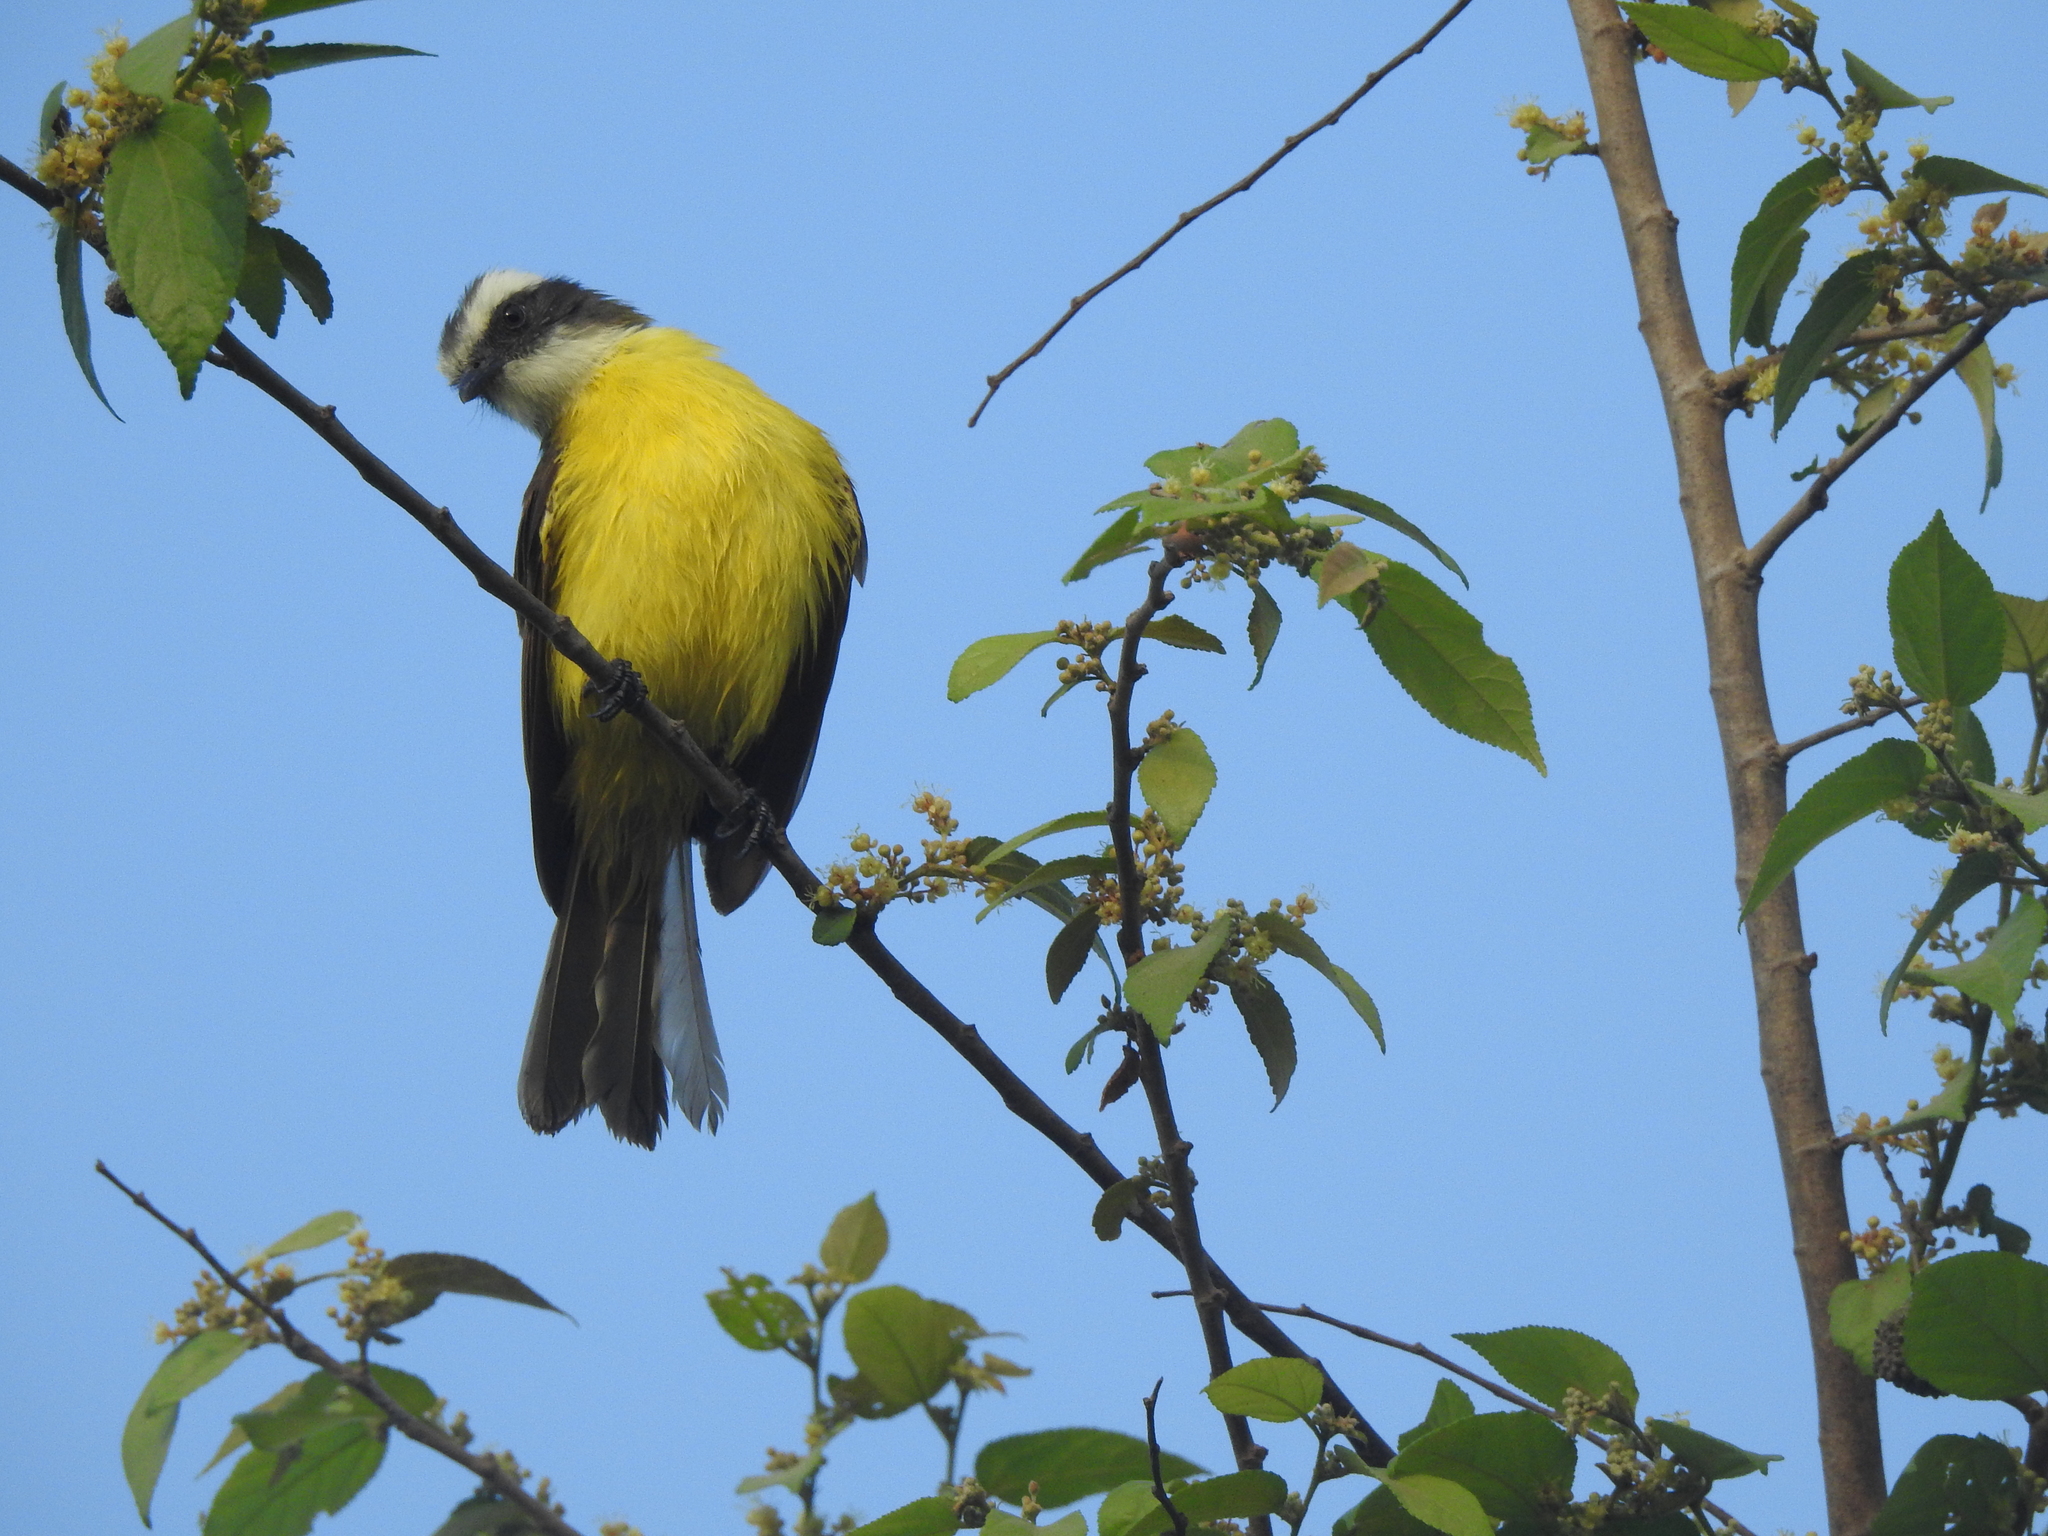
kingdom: Animalia
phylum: Chordata
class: Aves
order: Passeriformes
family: Tyrannidae
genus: Myiozetetes
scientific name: Myiozetetes similis
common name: Social flycatcher
